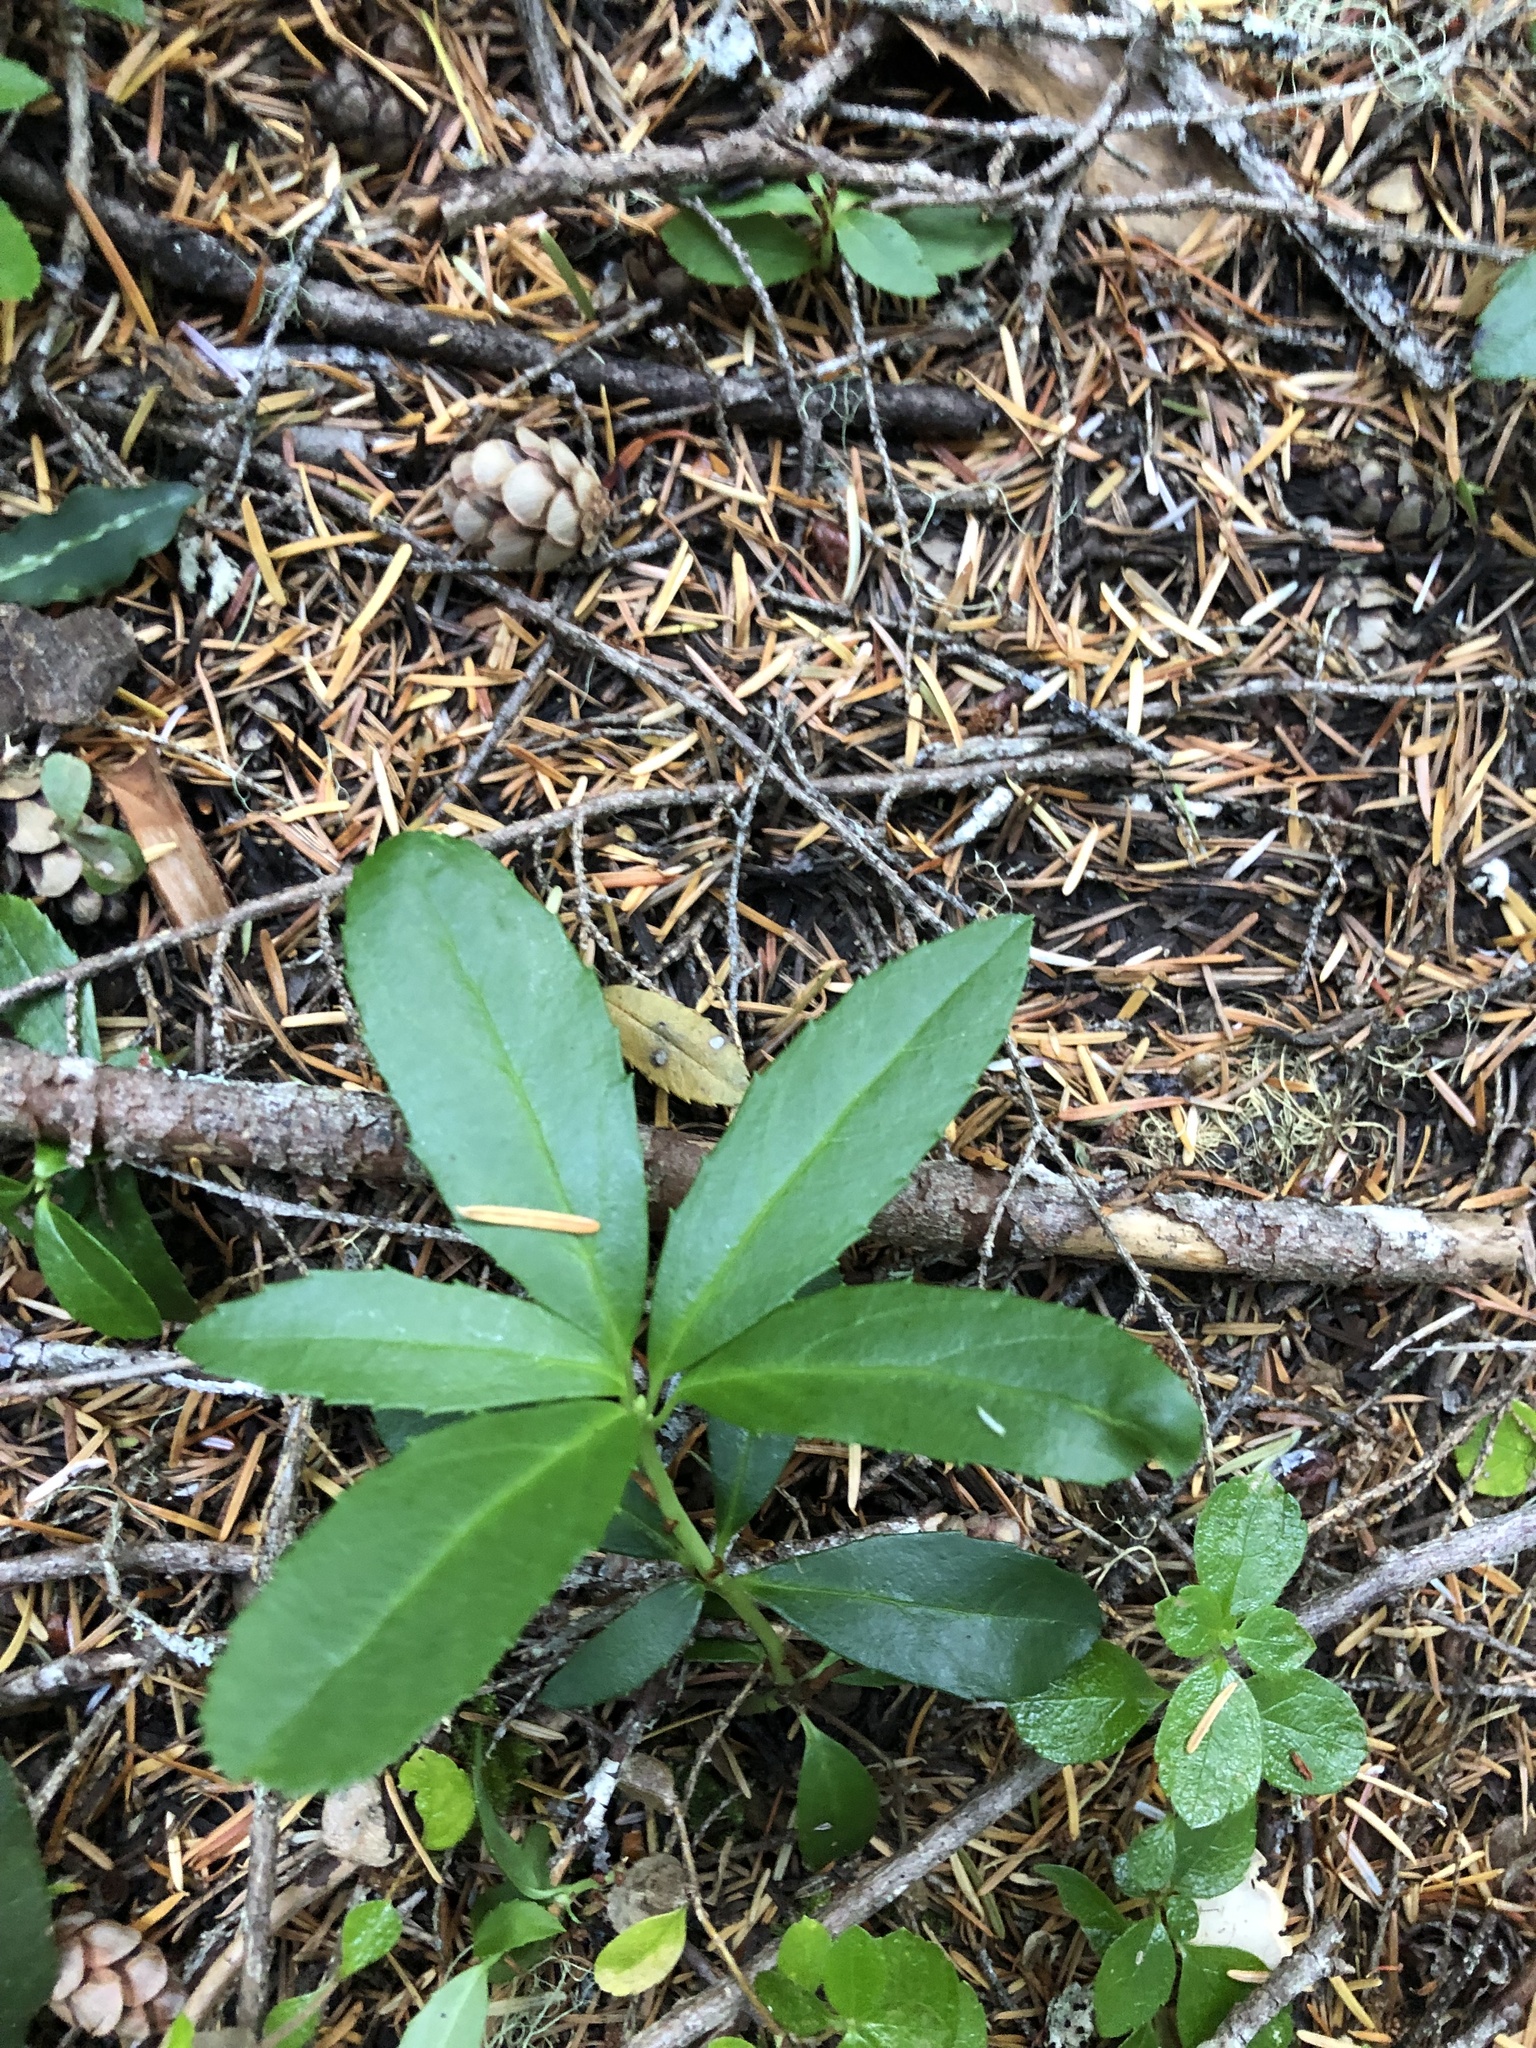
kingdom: Plantae
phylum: Tracheophyta
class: Magnoliopsida
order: Ericales
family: Ericaceae
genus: Chimaphila
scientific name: Chimaphila umbellata
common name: Pipsissewa
